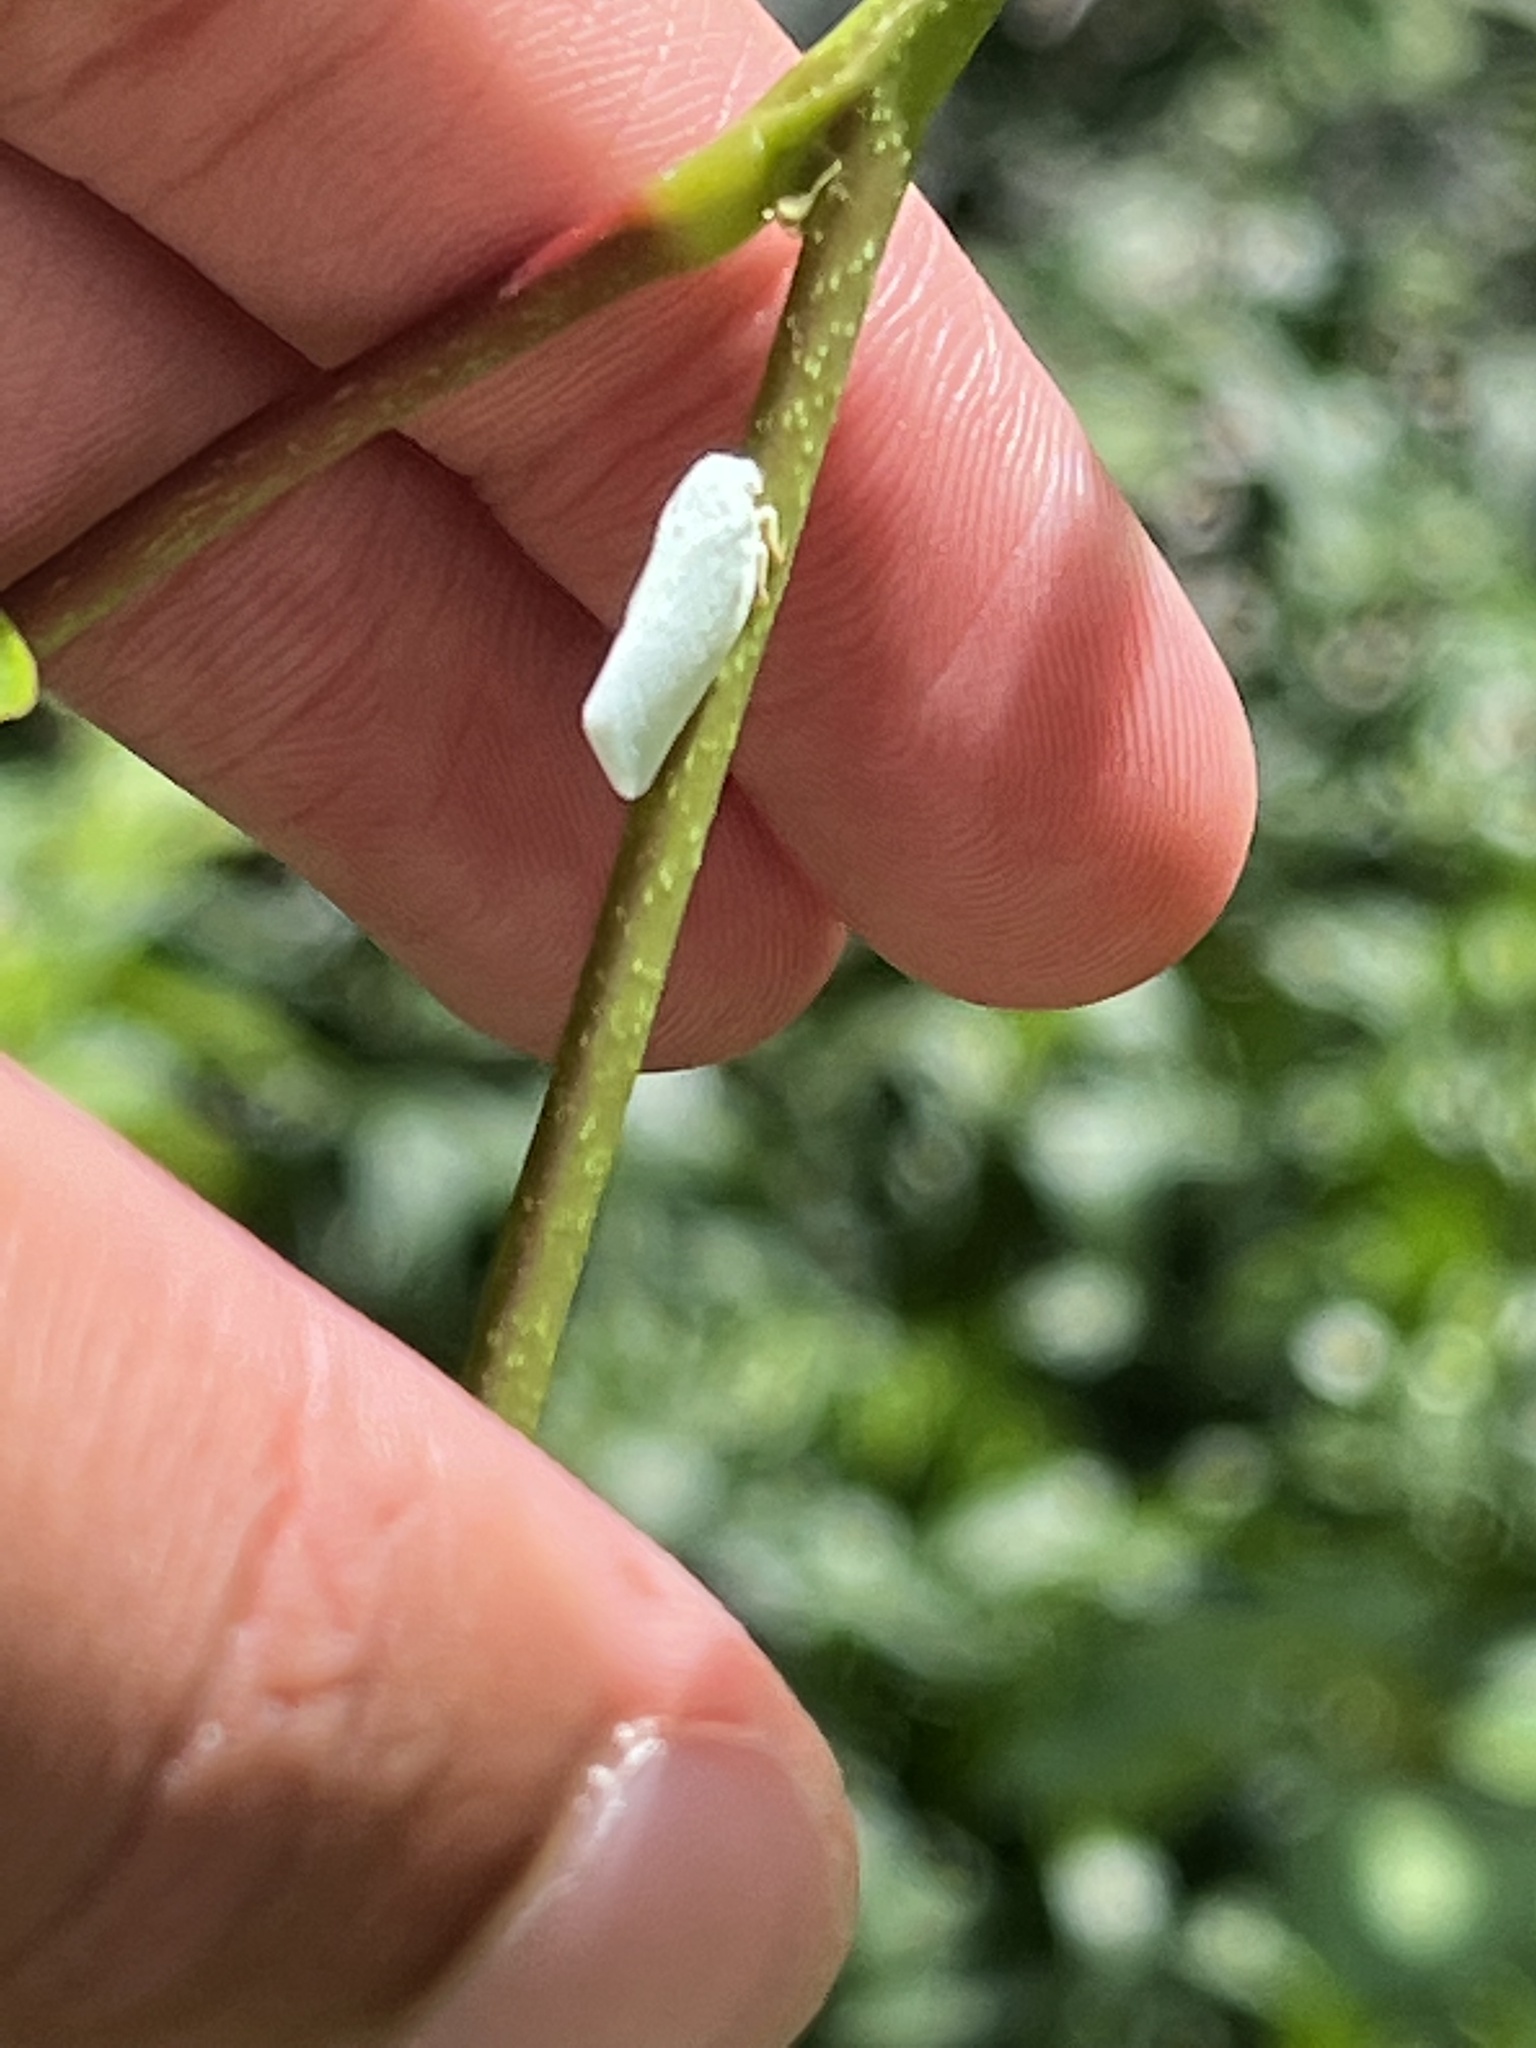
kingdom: Animalia
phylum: Arthropoda
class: Insecta
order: Hemiptera
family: Flatidae
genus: Flatormenis
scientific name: Flatormenis proxima
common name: Northern flatid planthopper
